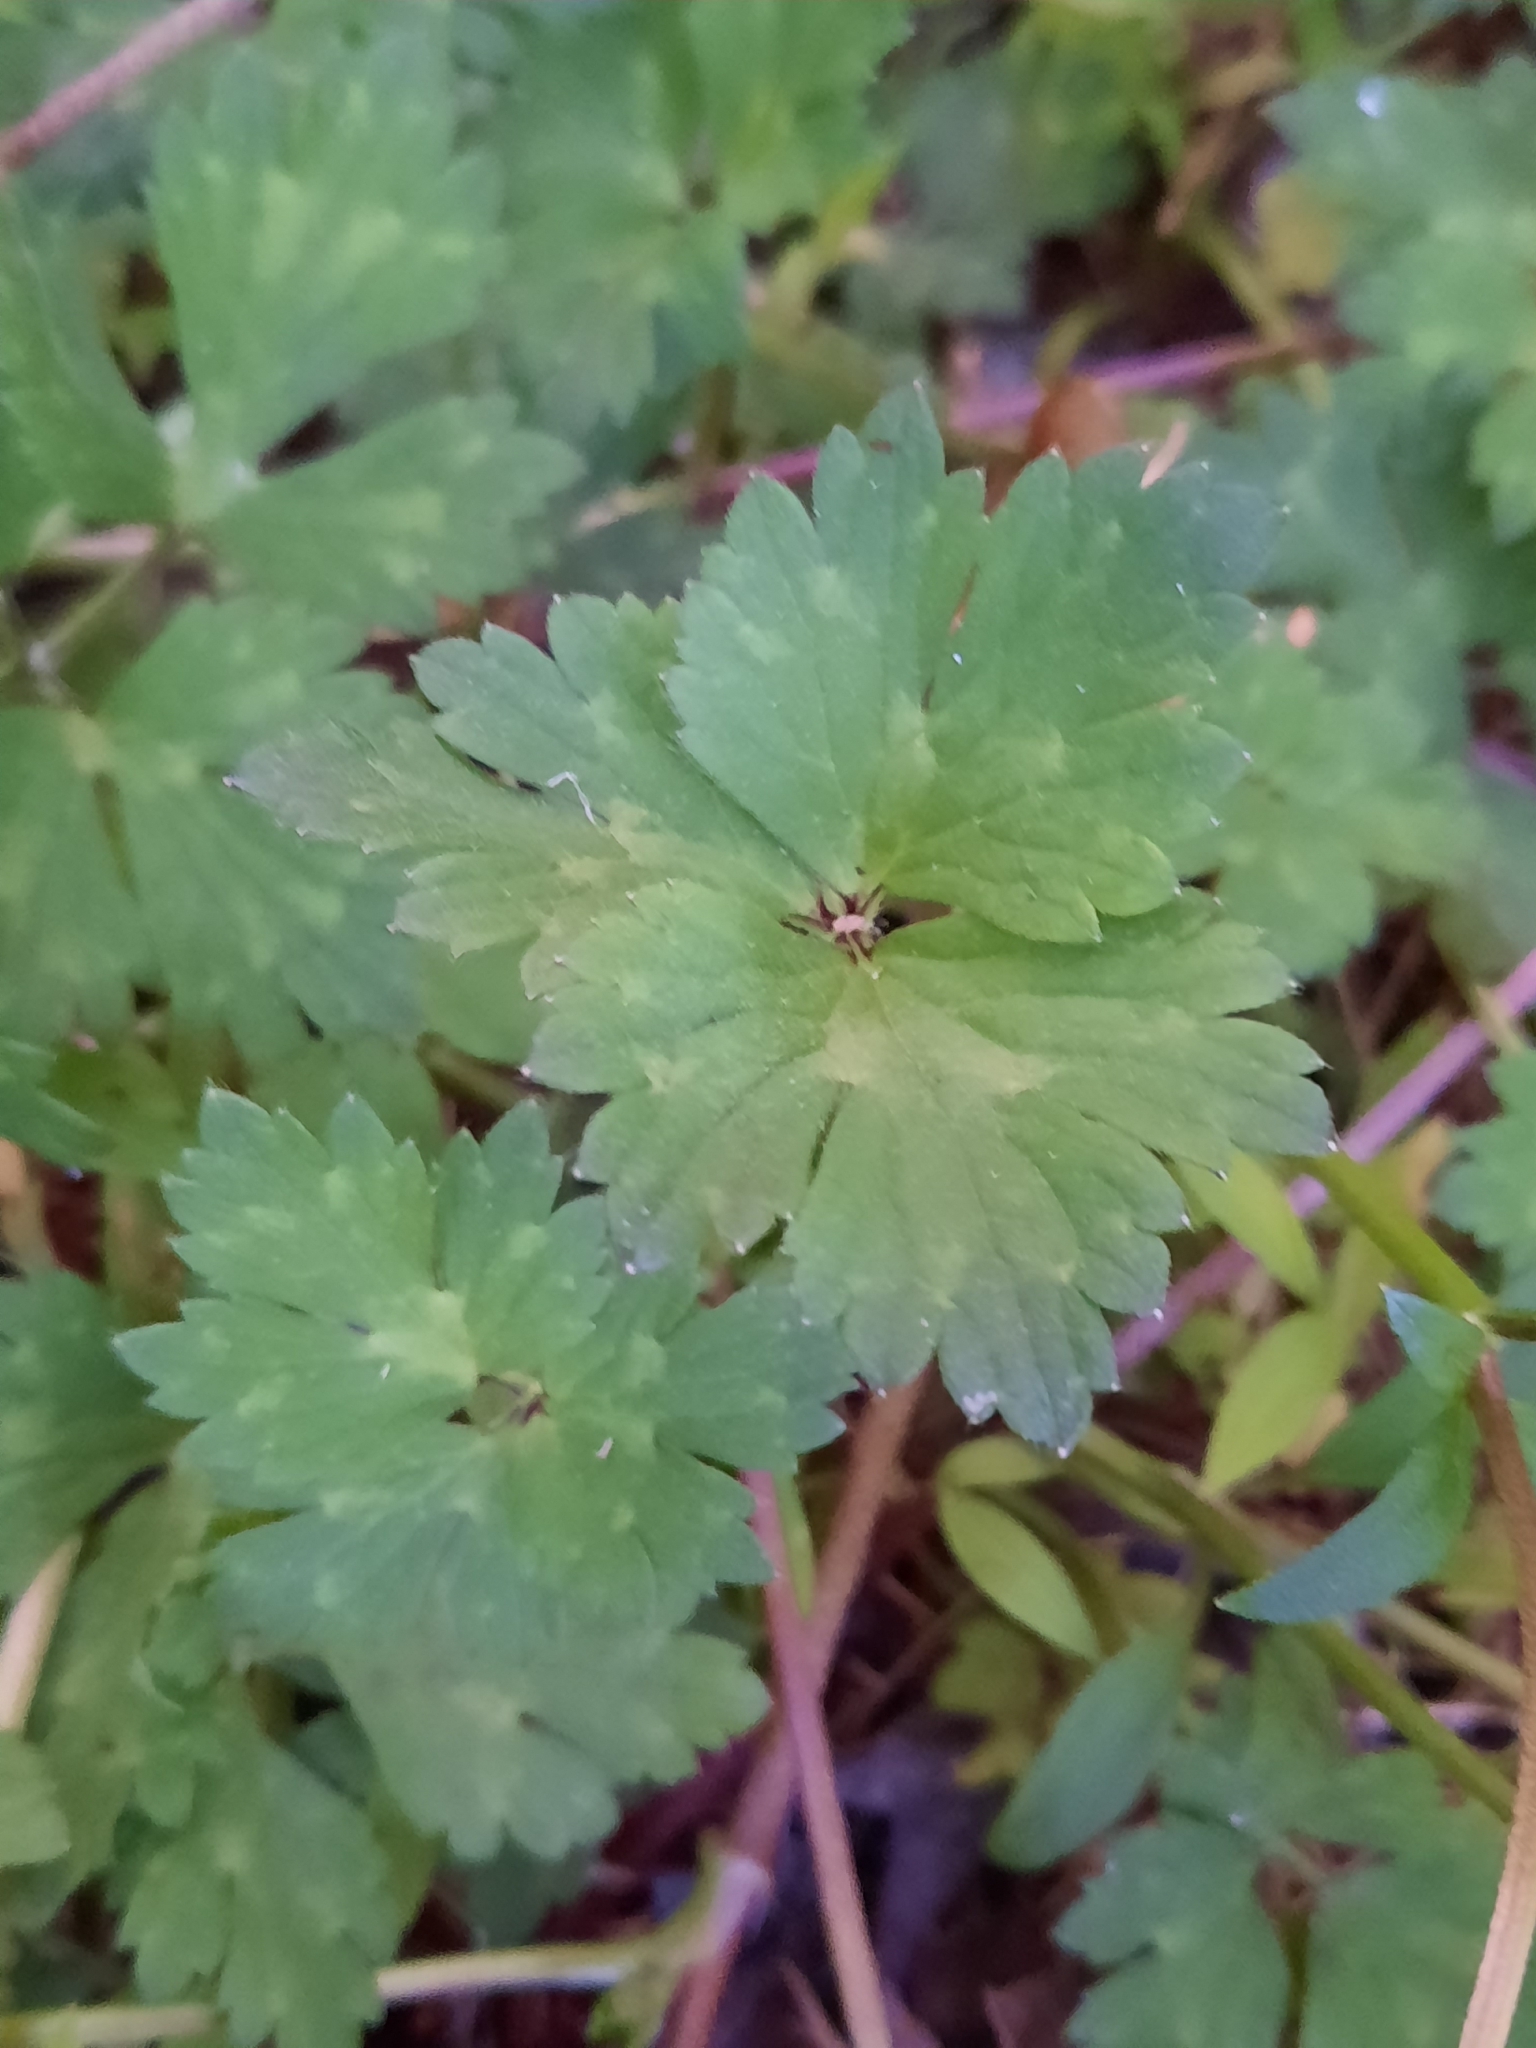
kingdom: Plantae
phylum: Tracheophyta
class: Magnoliopsida
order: Ranunculales
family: Ranunculaceae
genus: Ranunculus
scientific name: Ranunculus repens
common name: Creeping buttercup
